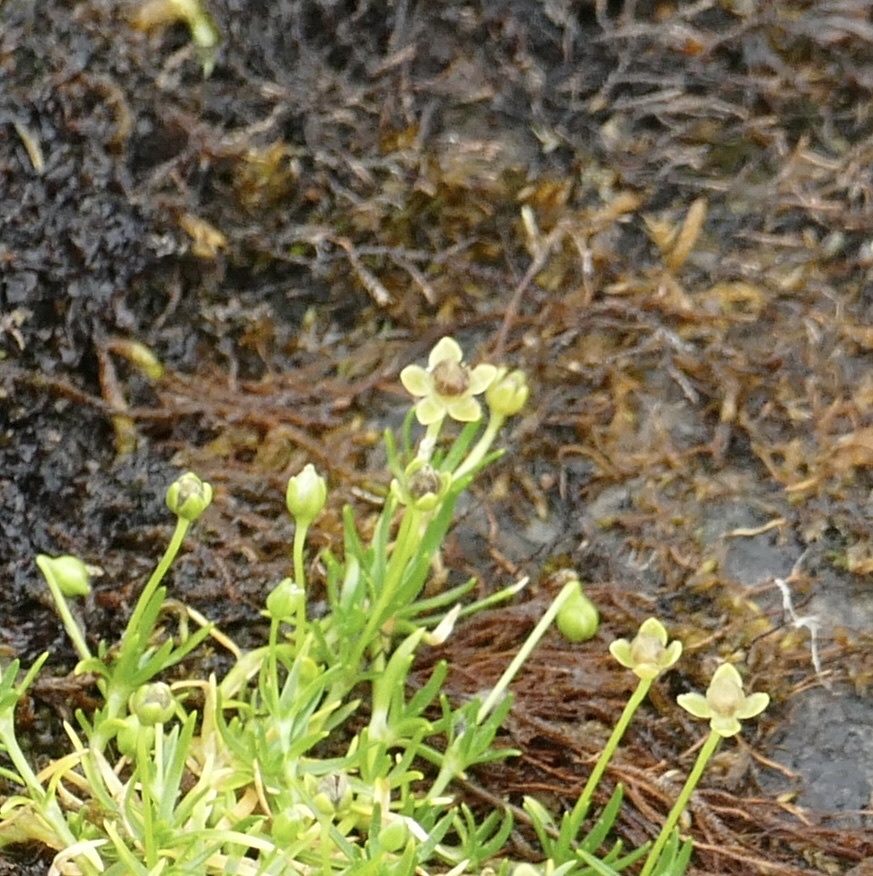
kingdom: Plantae
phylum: Tracheophyta
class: Magnoliopsida
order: Caryophyllales
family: Caryophyllaceae
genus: Sagina
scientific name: Sagina procumbens
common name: Procumbent pearlwort
